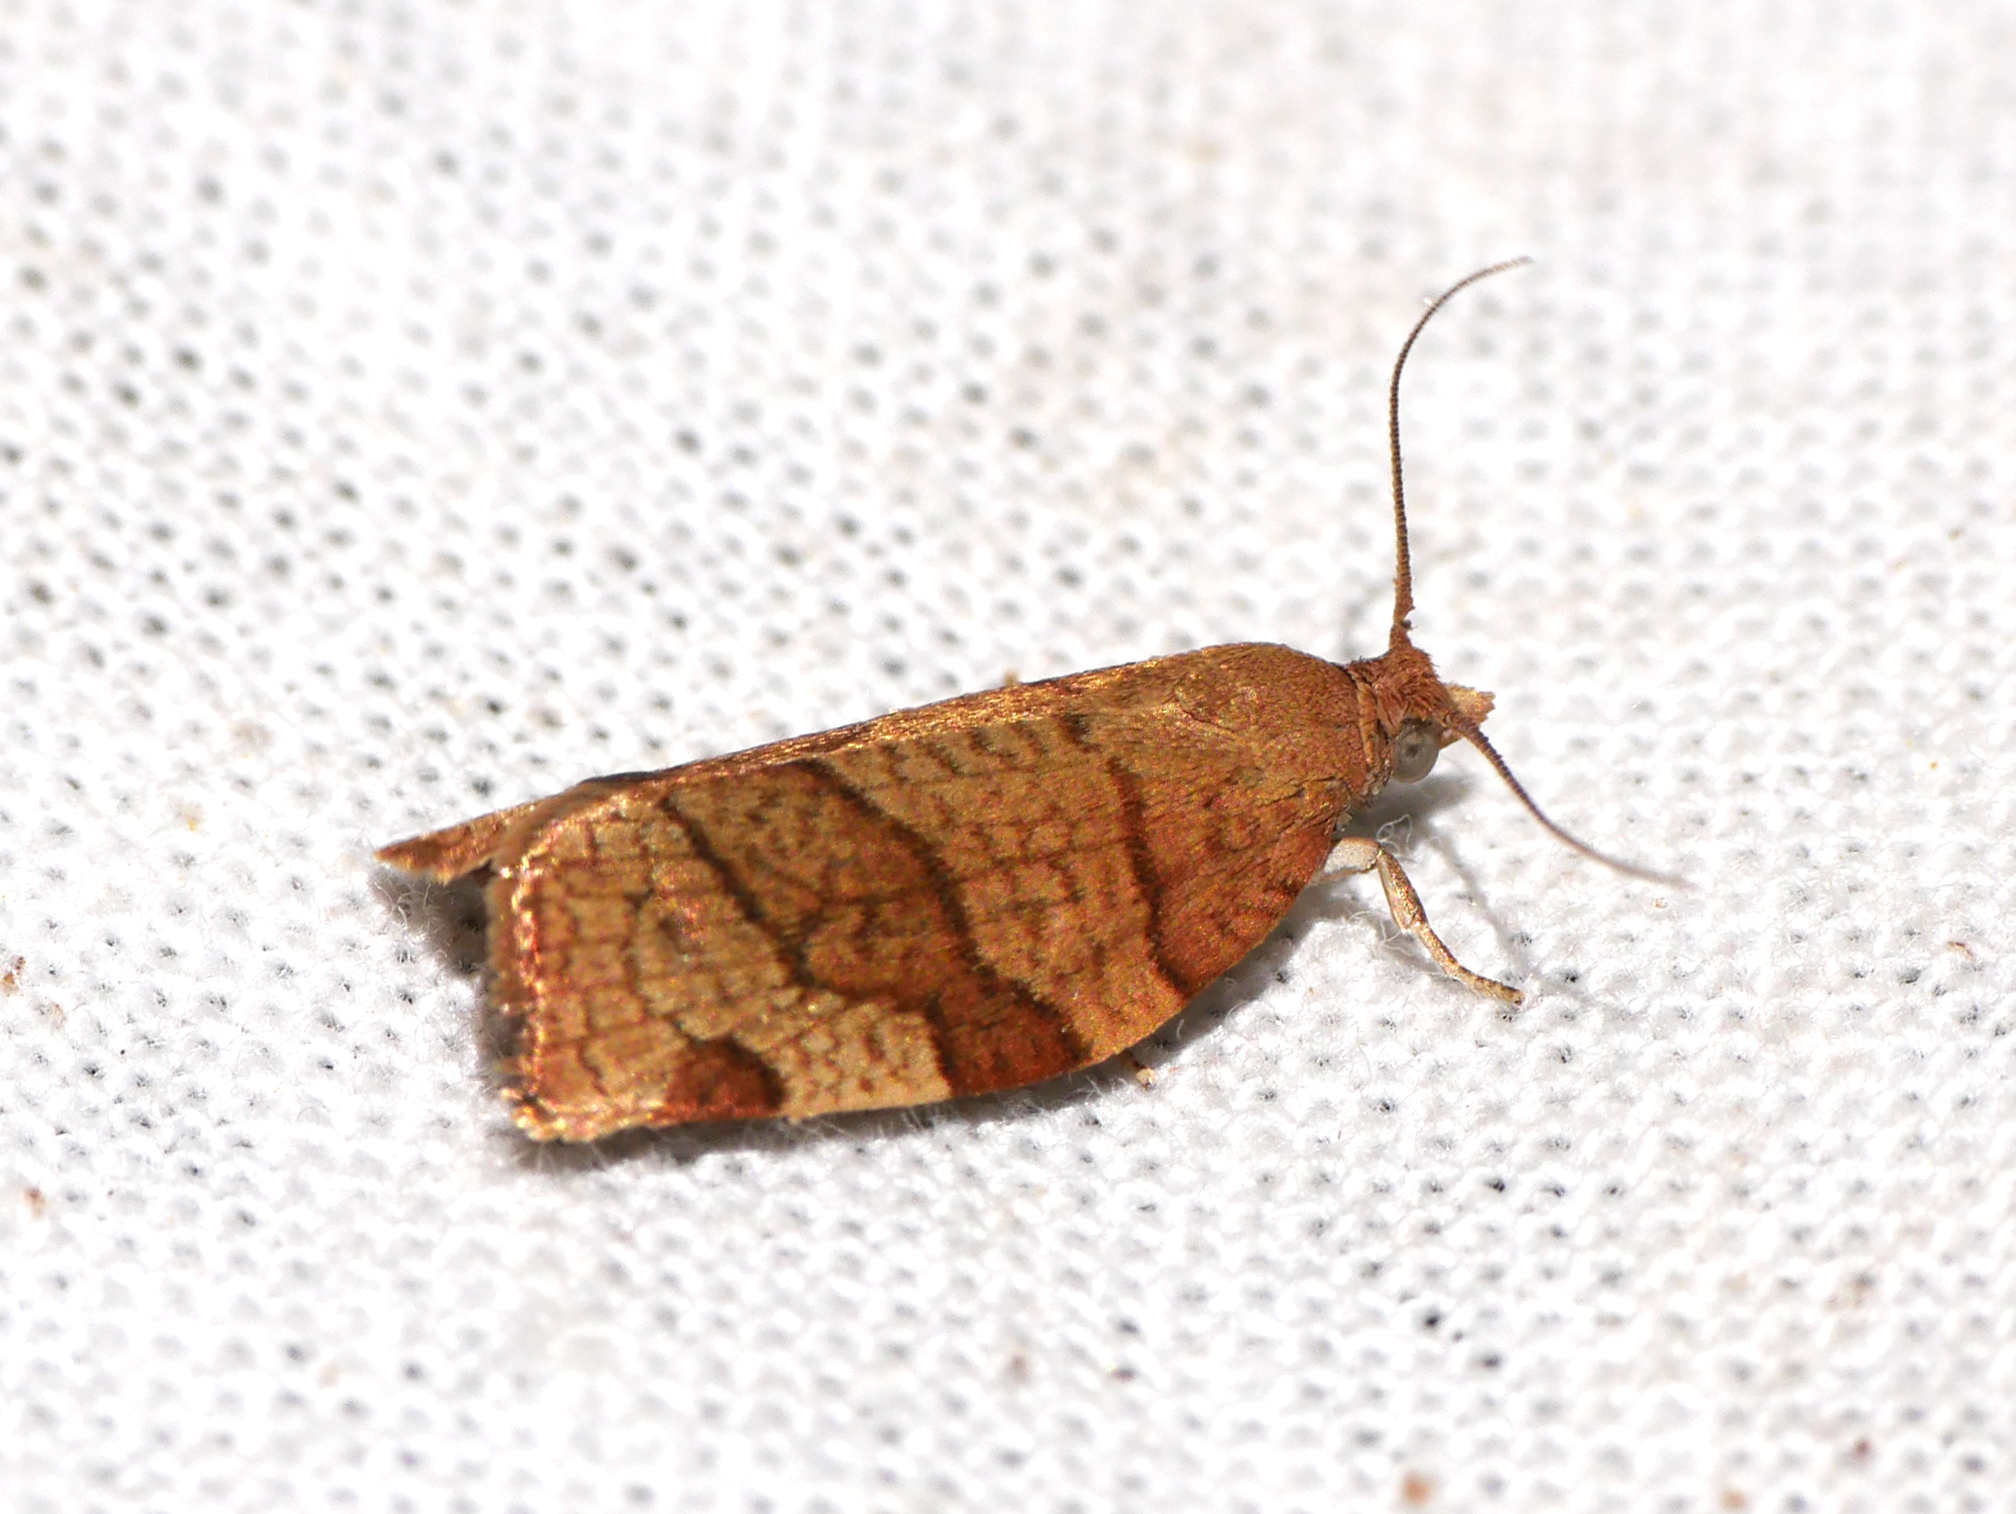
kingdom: Animalia
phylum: Arthropoda
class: Insecta
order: Lepidoptera
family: Tortricidae
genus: Pandemis
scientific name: Pandemis cerasana
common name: Barred fruit-tree tortrix
